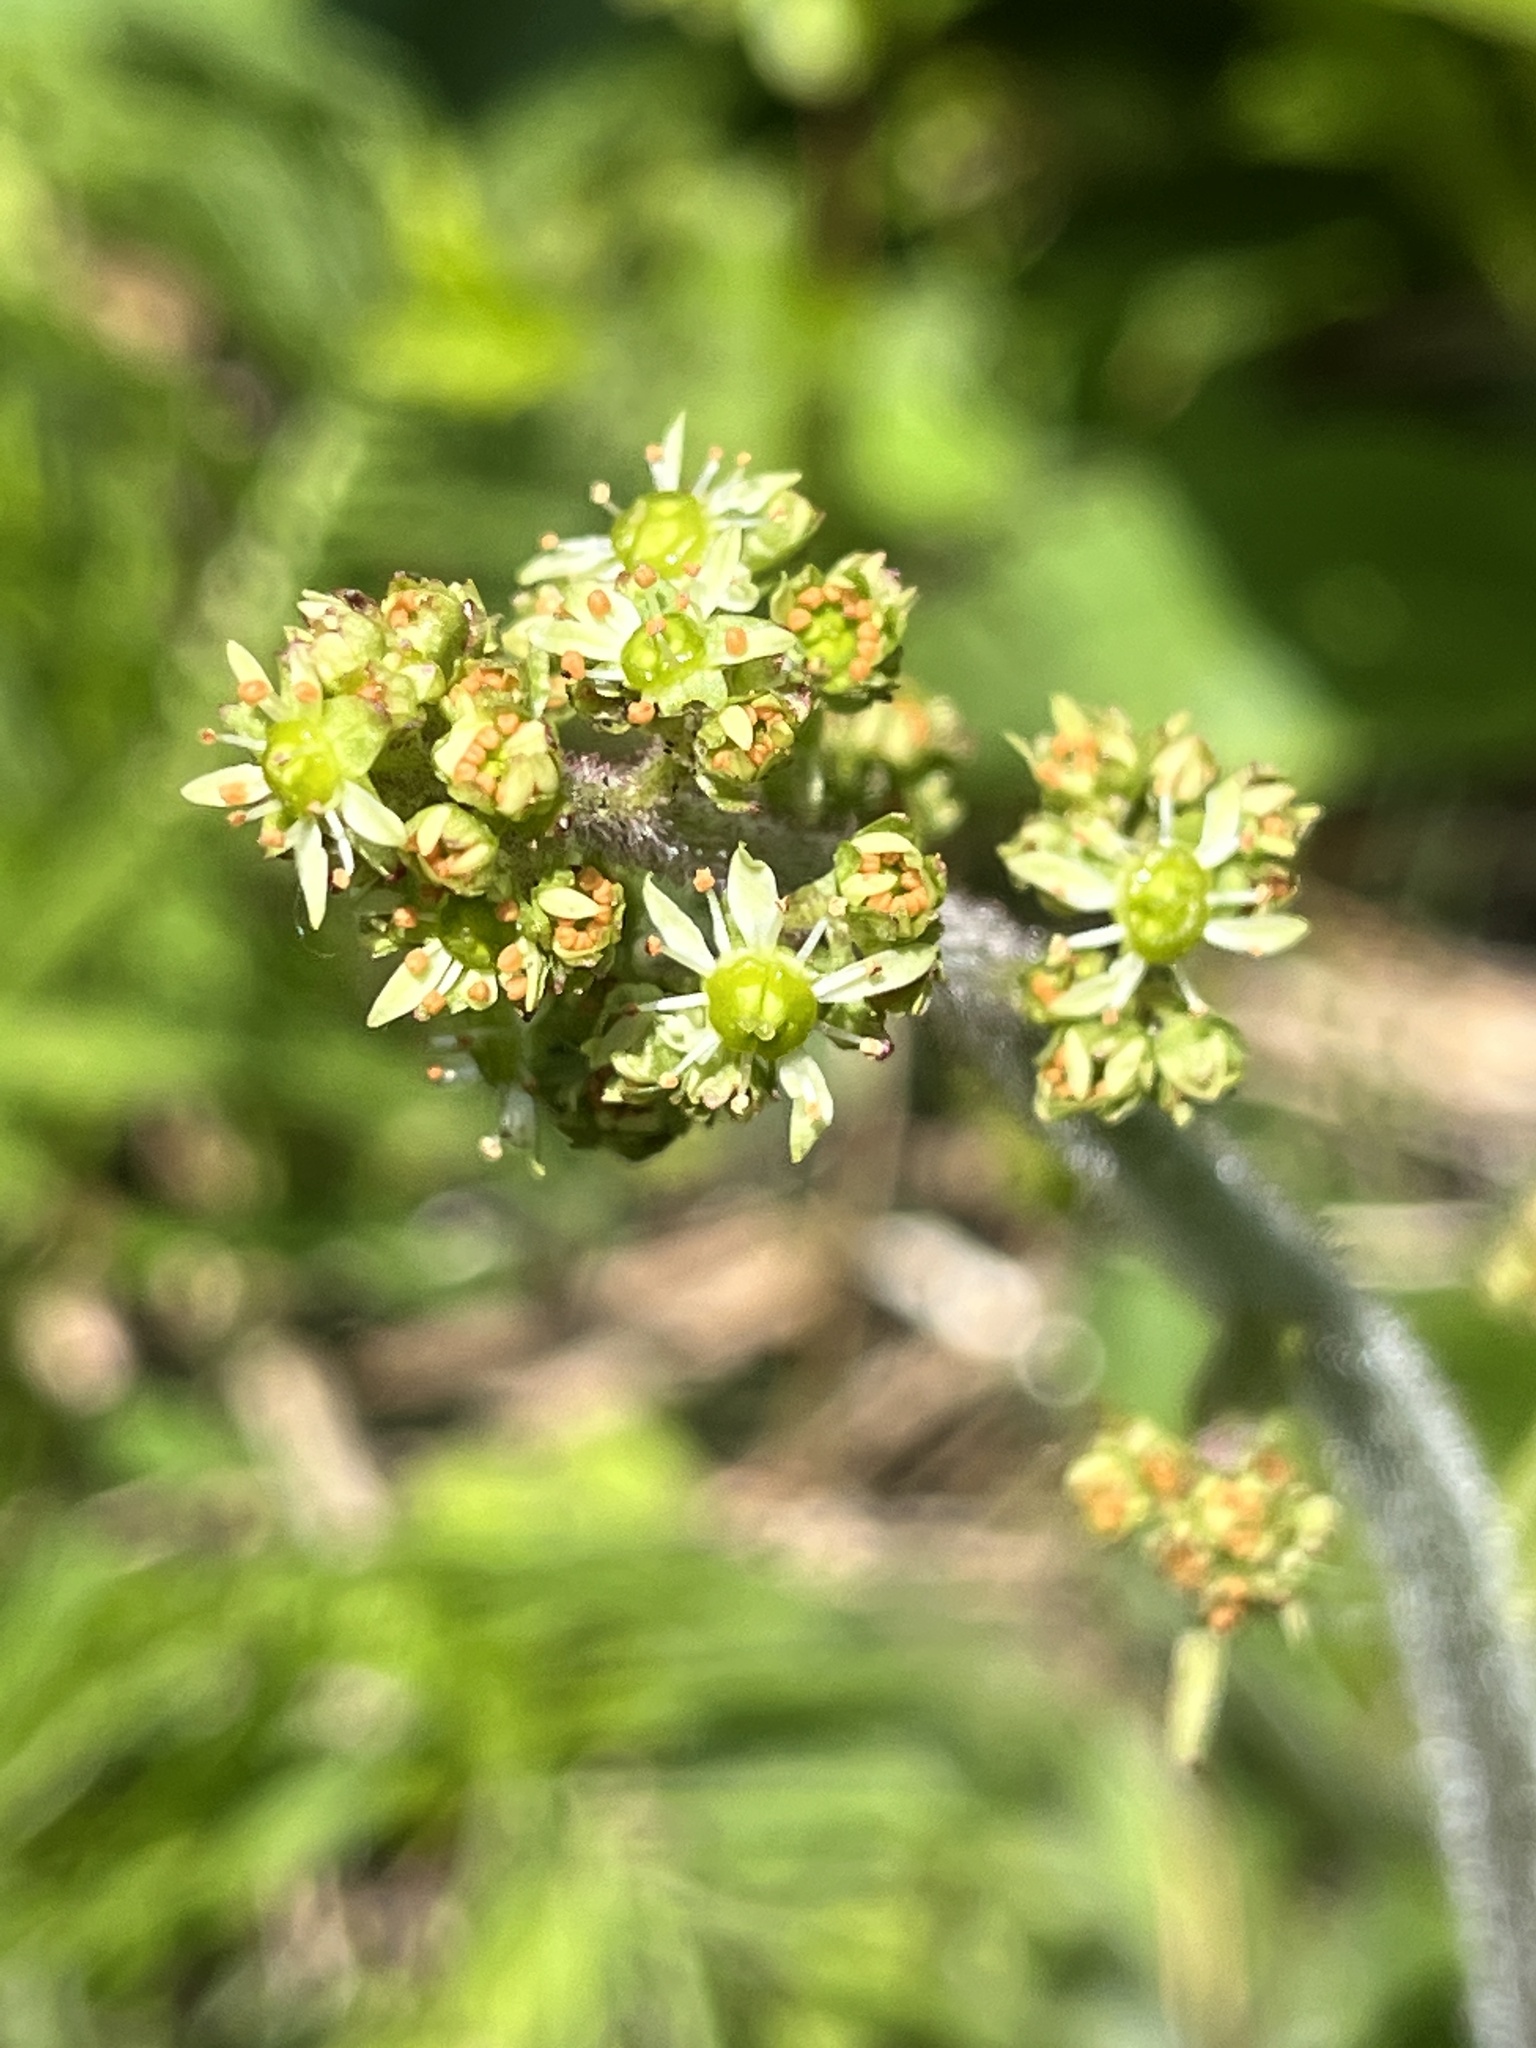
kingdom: Plantae
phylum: Tracheophyta
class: Magnoliopsida
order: Saxifragales
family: Saxifragaceae
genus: Micranthes
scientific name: Micranthes pensylvanica
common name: Marsh saxifrage
